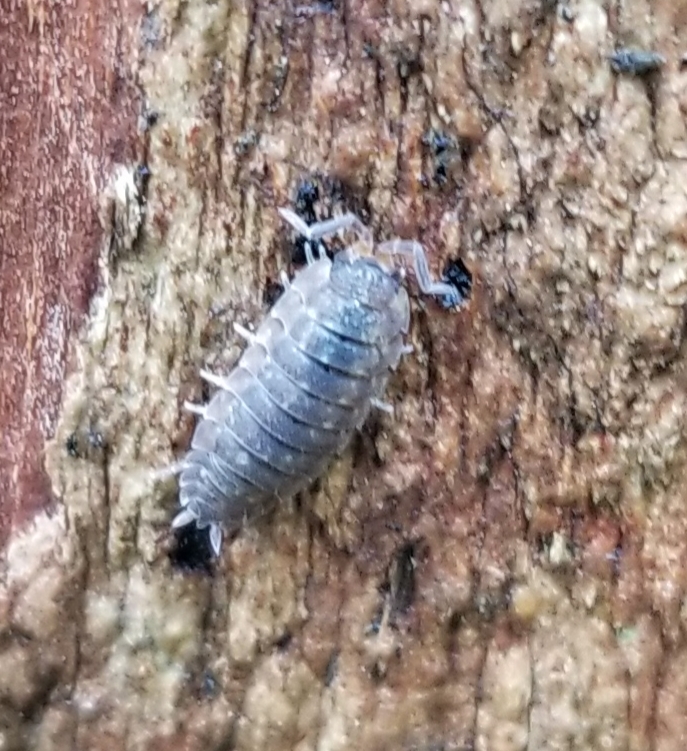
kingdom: Animalia
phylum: Arthropoda
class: Malacostraca
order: Isopoda
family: Porcellionidae
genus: Porcellio
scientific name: Porcellio scaber
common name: Common rough woodlouse
